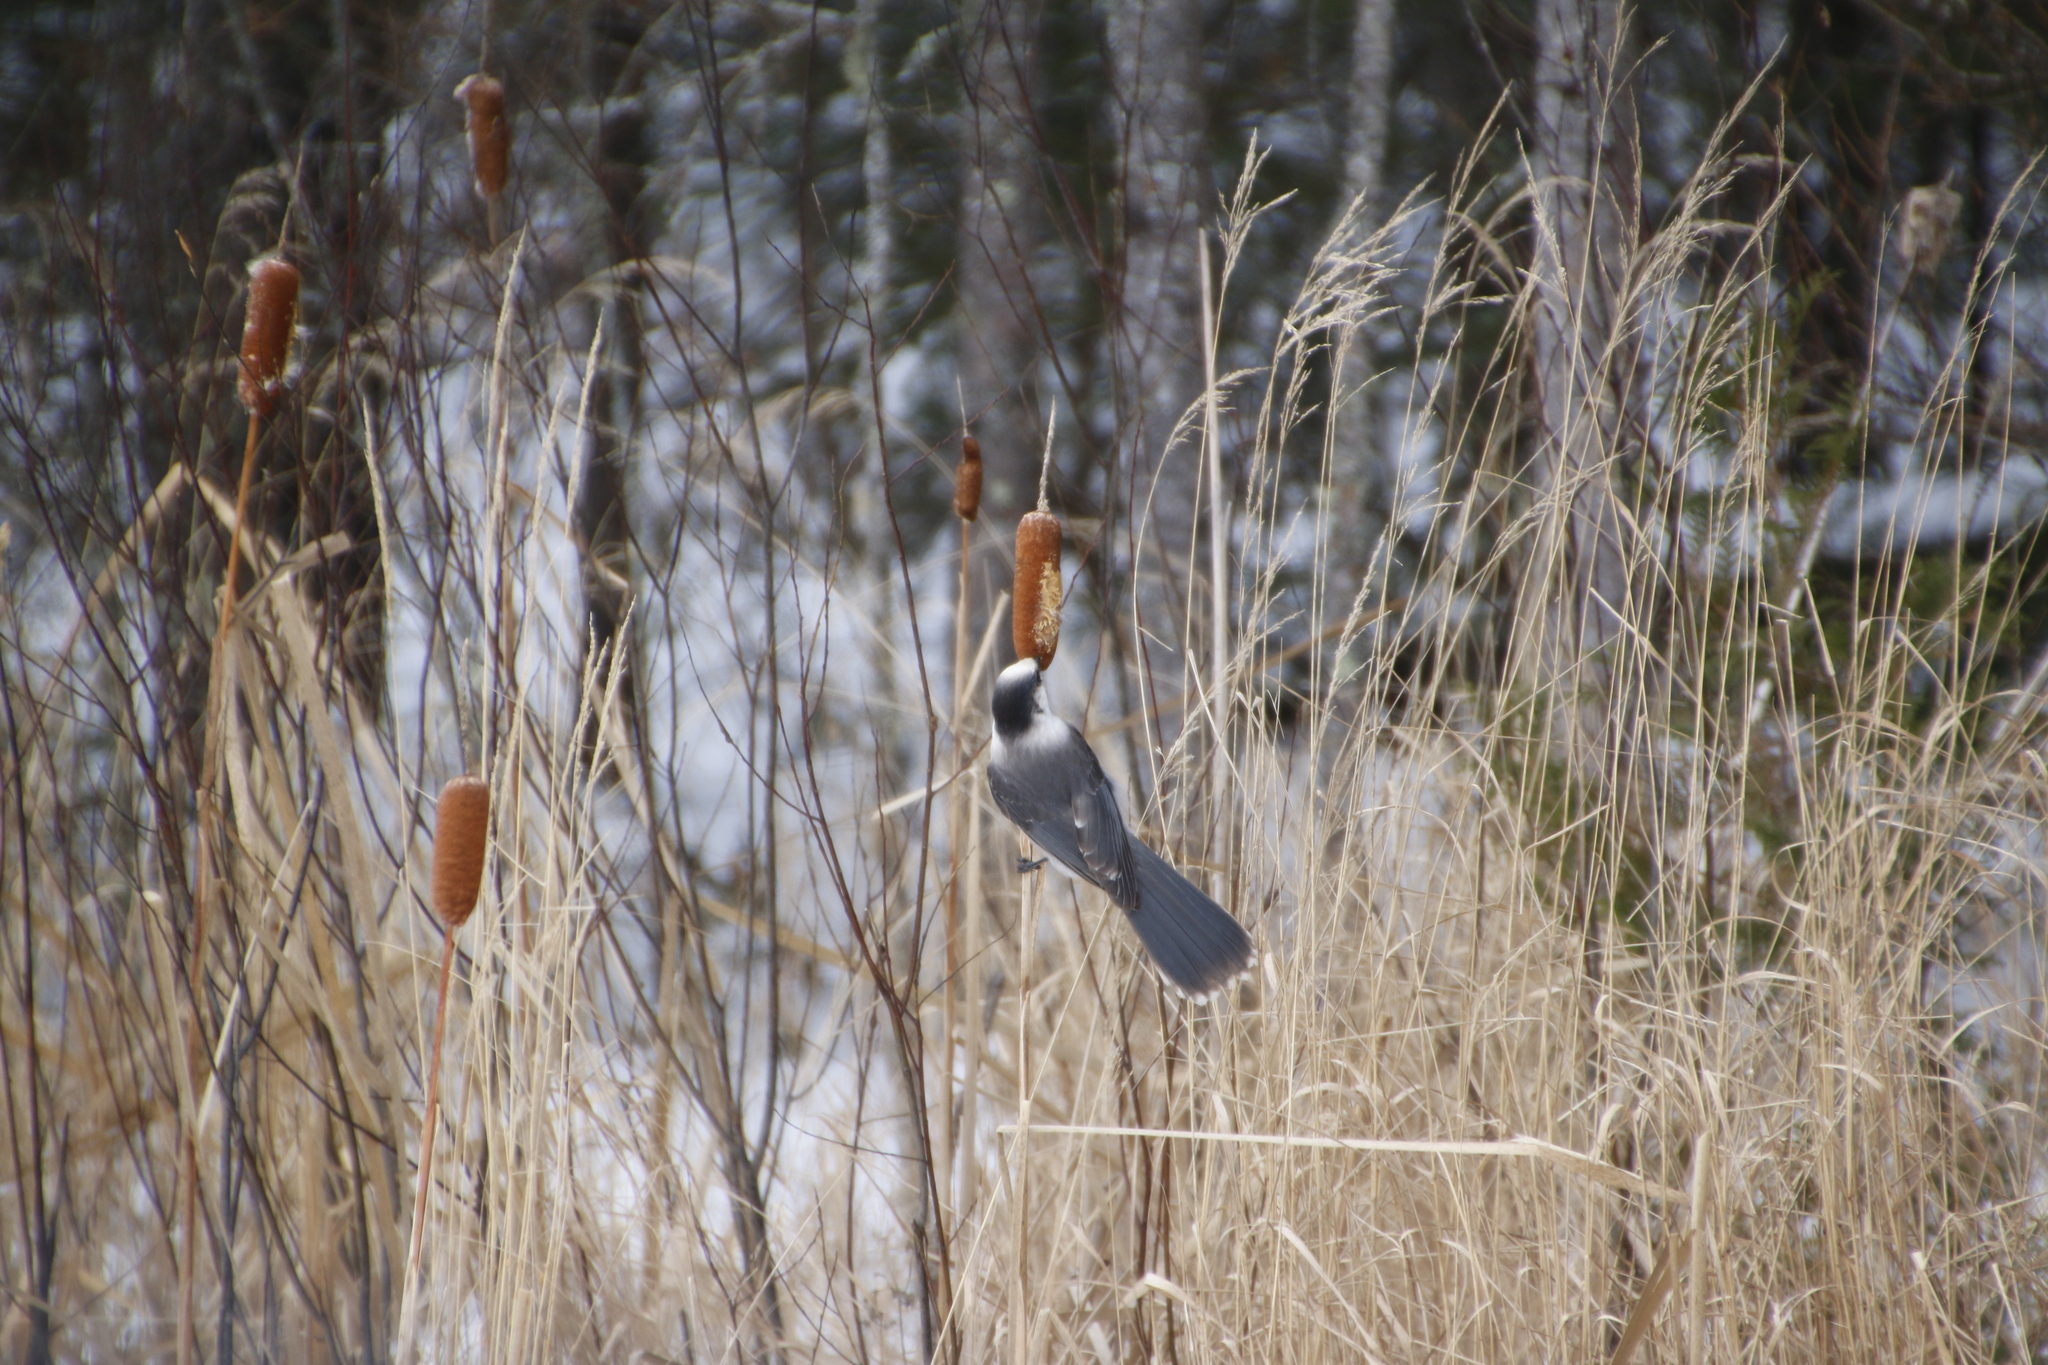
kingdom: Animalia
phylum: Chordata
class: Aves
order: Passeriformes
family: Corvidae
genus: Perisoreus
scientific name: Perisoreus canadensis
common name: Gray jay
